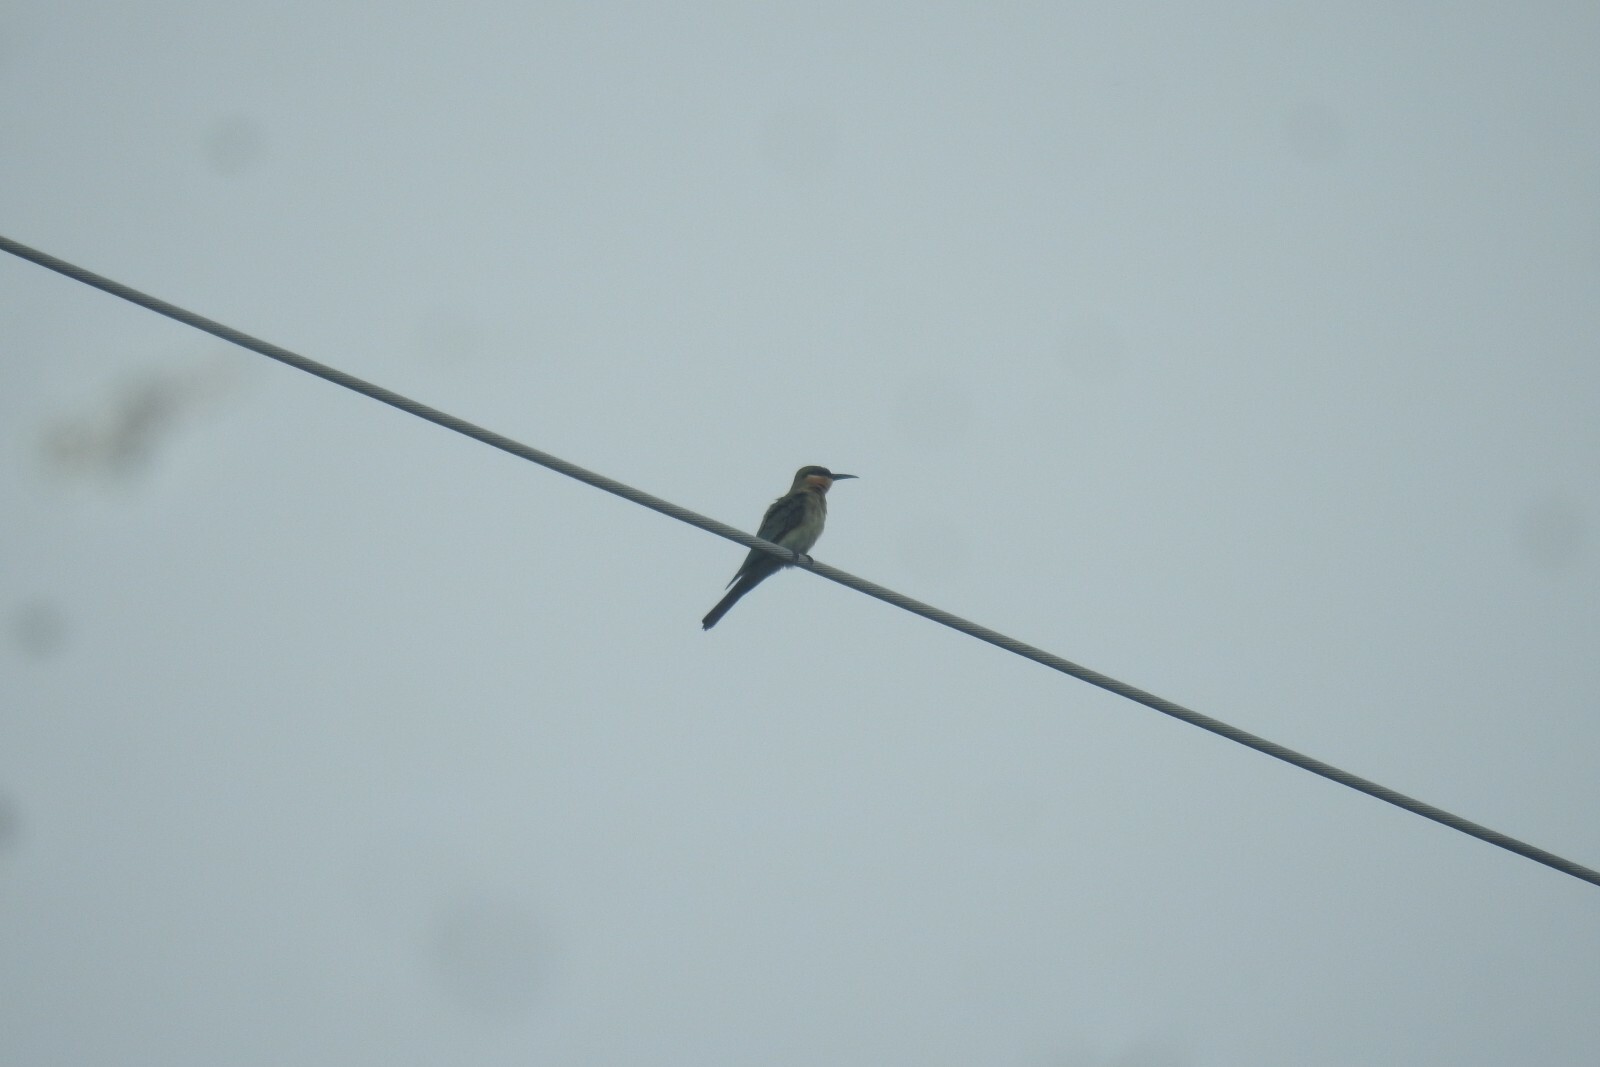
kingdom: Animalia
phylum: Chordata
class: Aves
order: Coraciiformes
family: Meropidae
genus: Merops
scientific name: Merops philippinus
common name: Blue-tailed bee-eater
